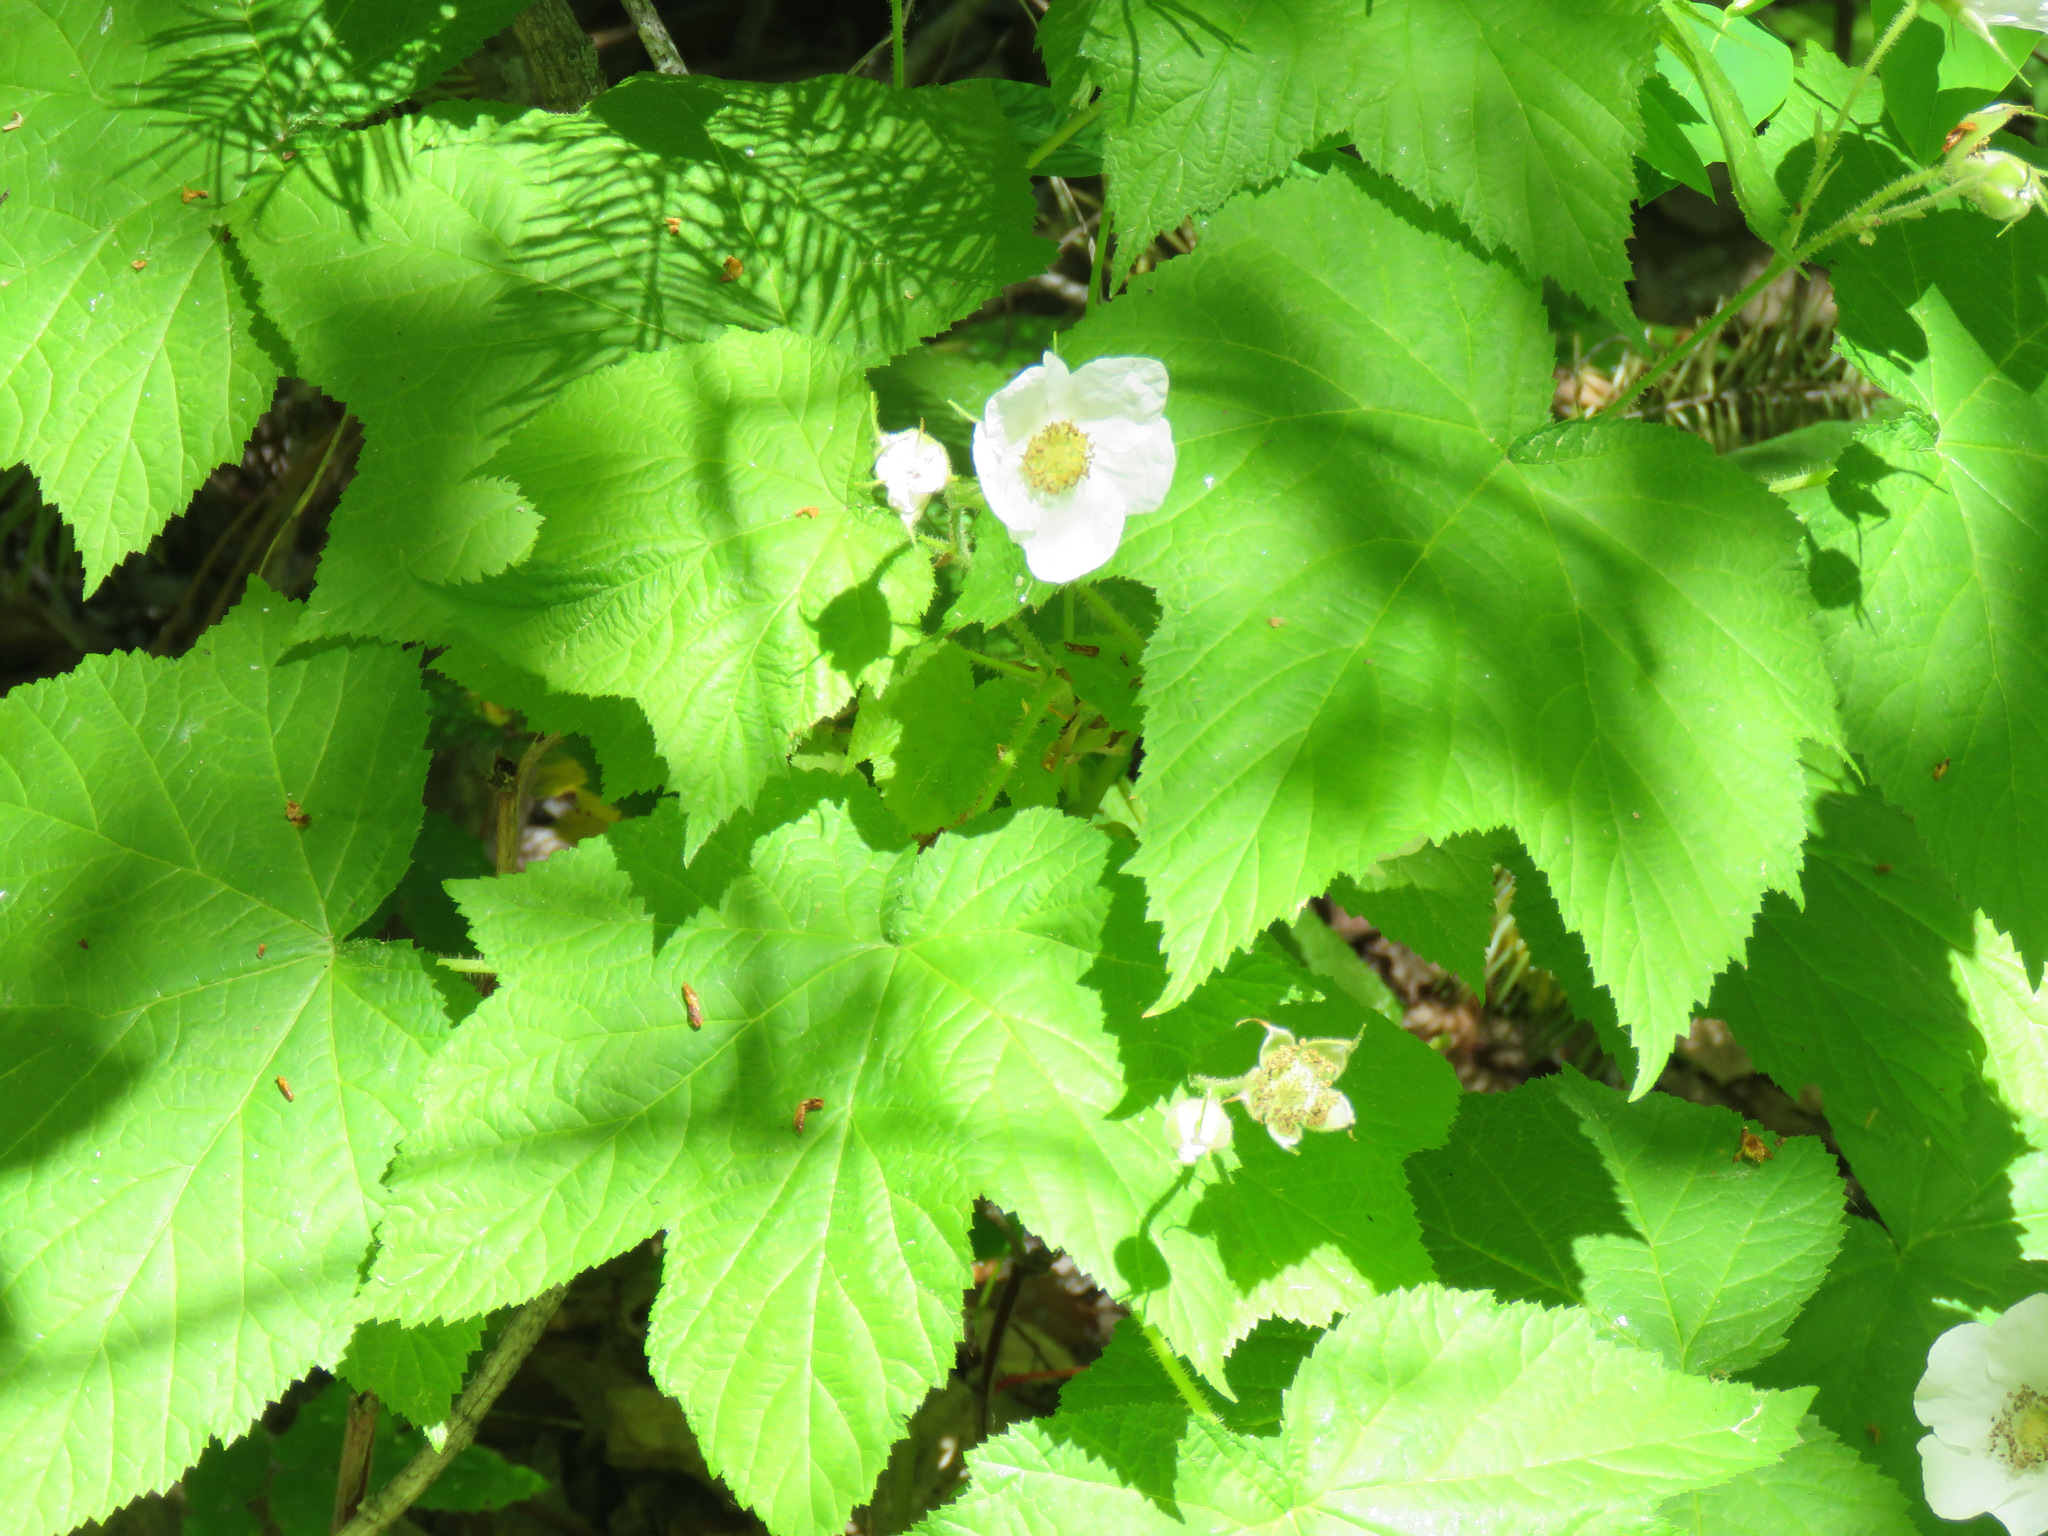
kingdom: Plantae
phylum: Tracheophyta
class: Magnoliopsida
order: Rosales
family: Rosaceae
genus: Rubus
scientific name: Rubus parviflorus
